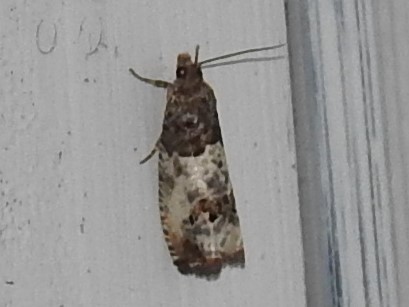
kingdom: Animalia
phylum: Arthropoda
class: Insecta
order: Lepidoptera
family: Tortricidae
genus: Notocelia
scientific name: Notocelia rosaecolana
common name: Common rose bell
